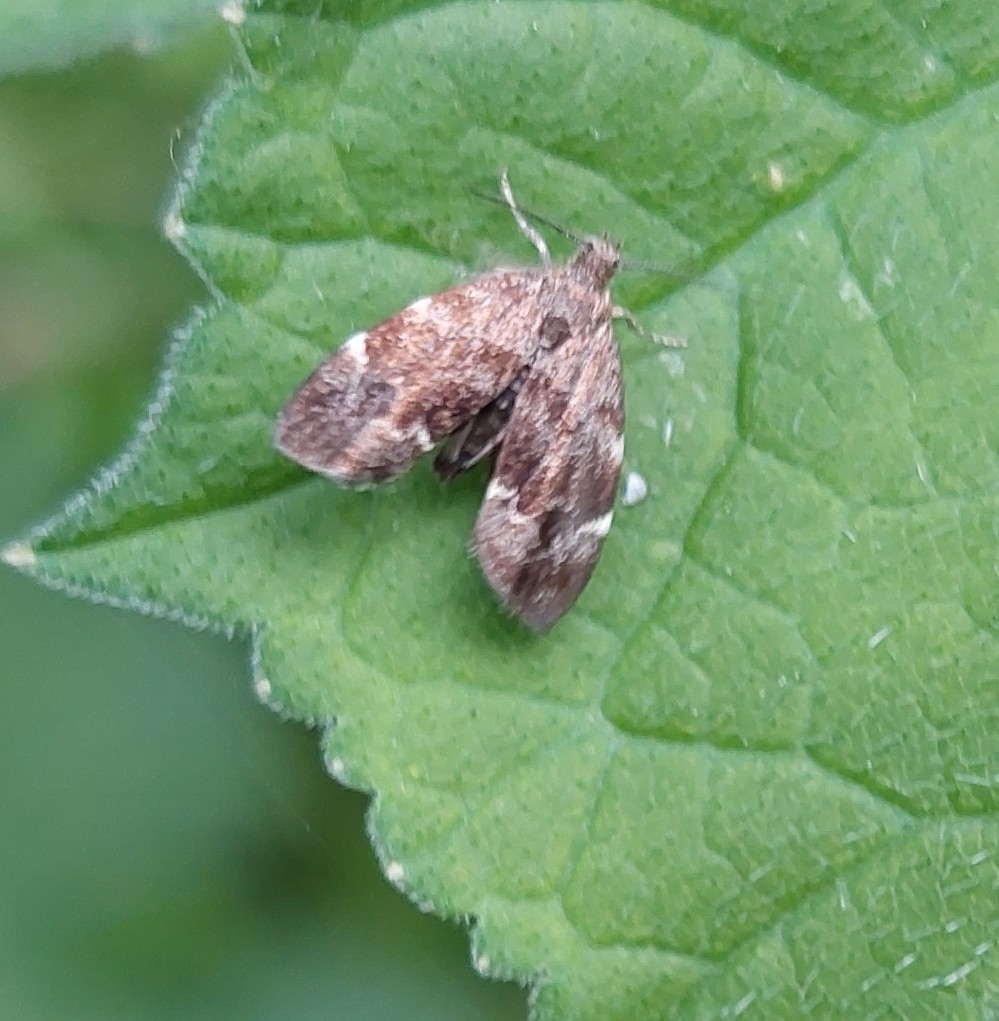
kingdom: Animalia
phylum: Arthropoda
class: Insecta
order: Lepidoptera
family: Choreutidae
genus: Anthophila
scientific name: Anthophila fabriciana
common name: Nettle-tap
